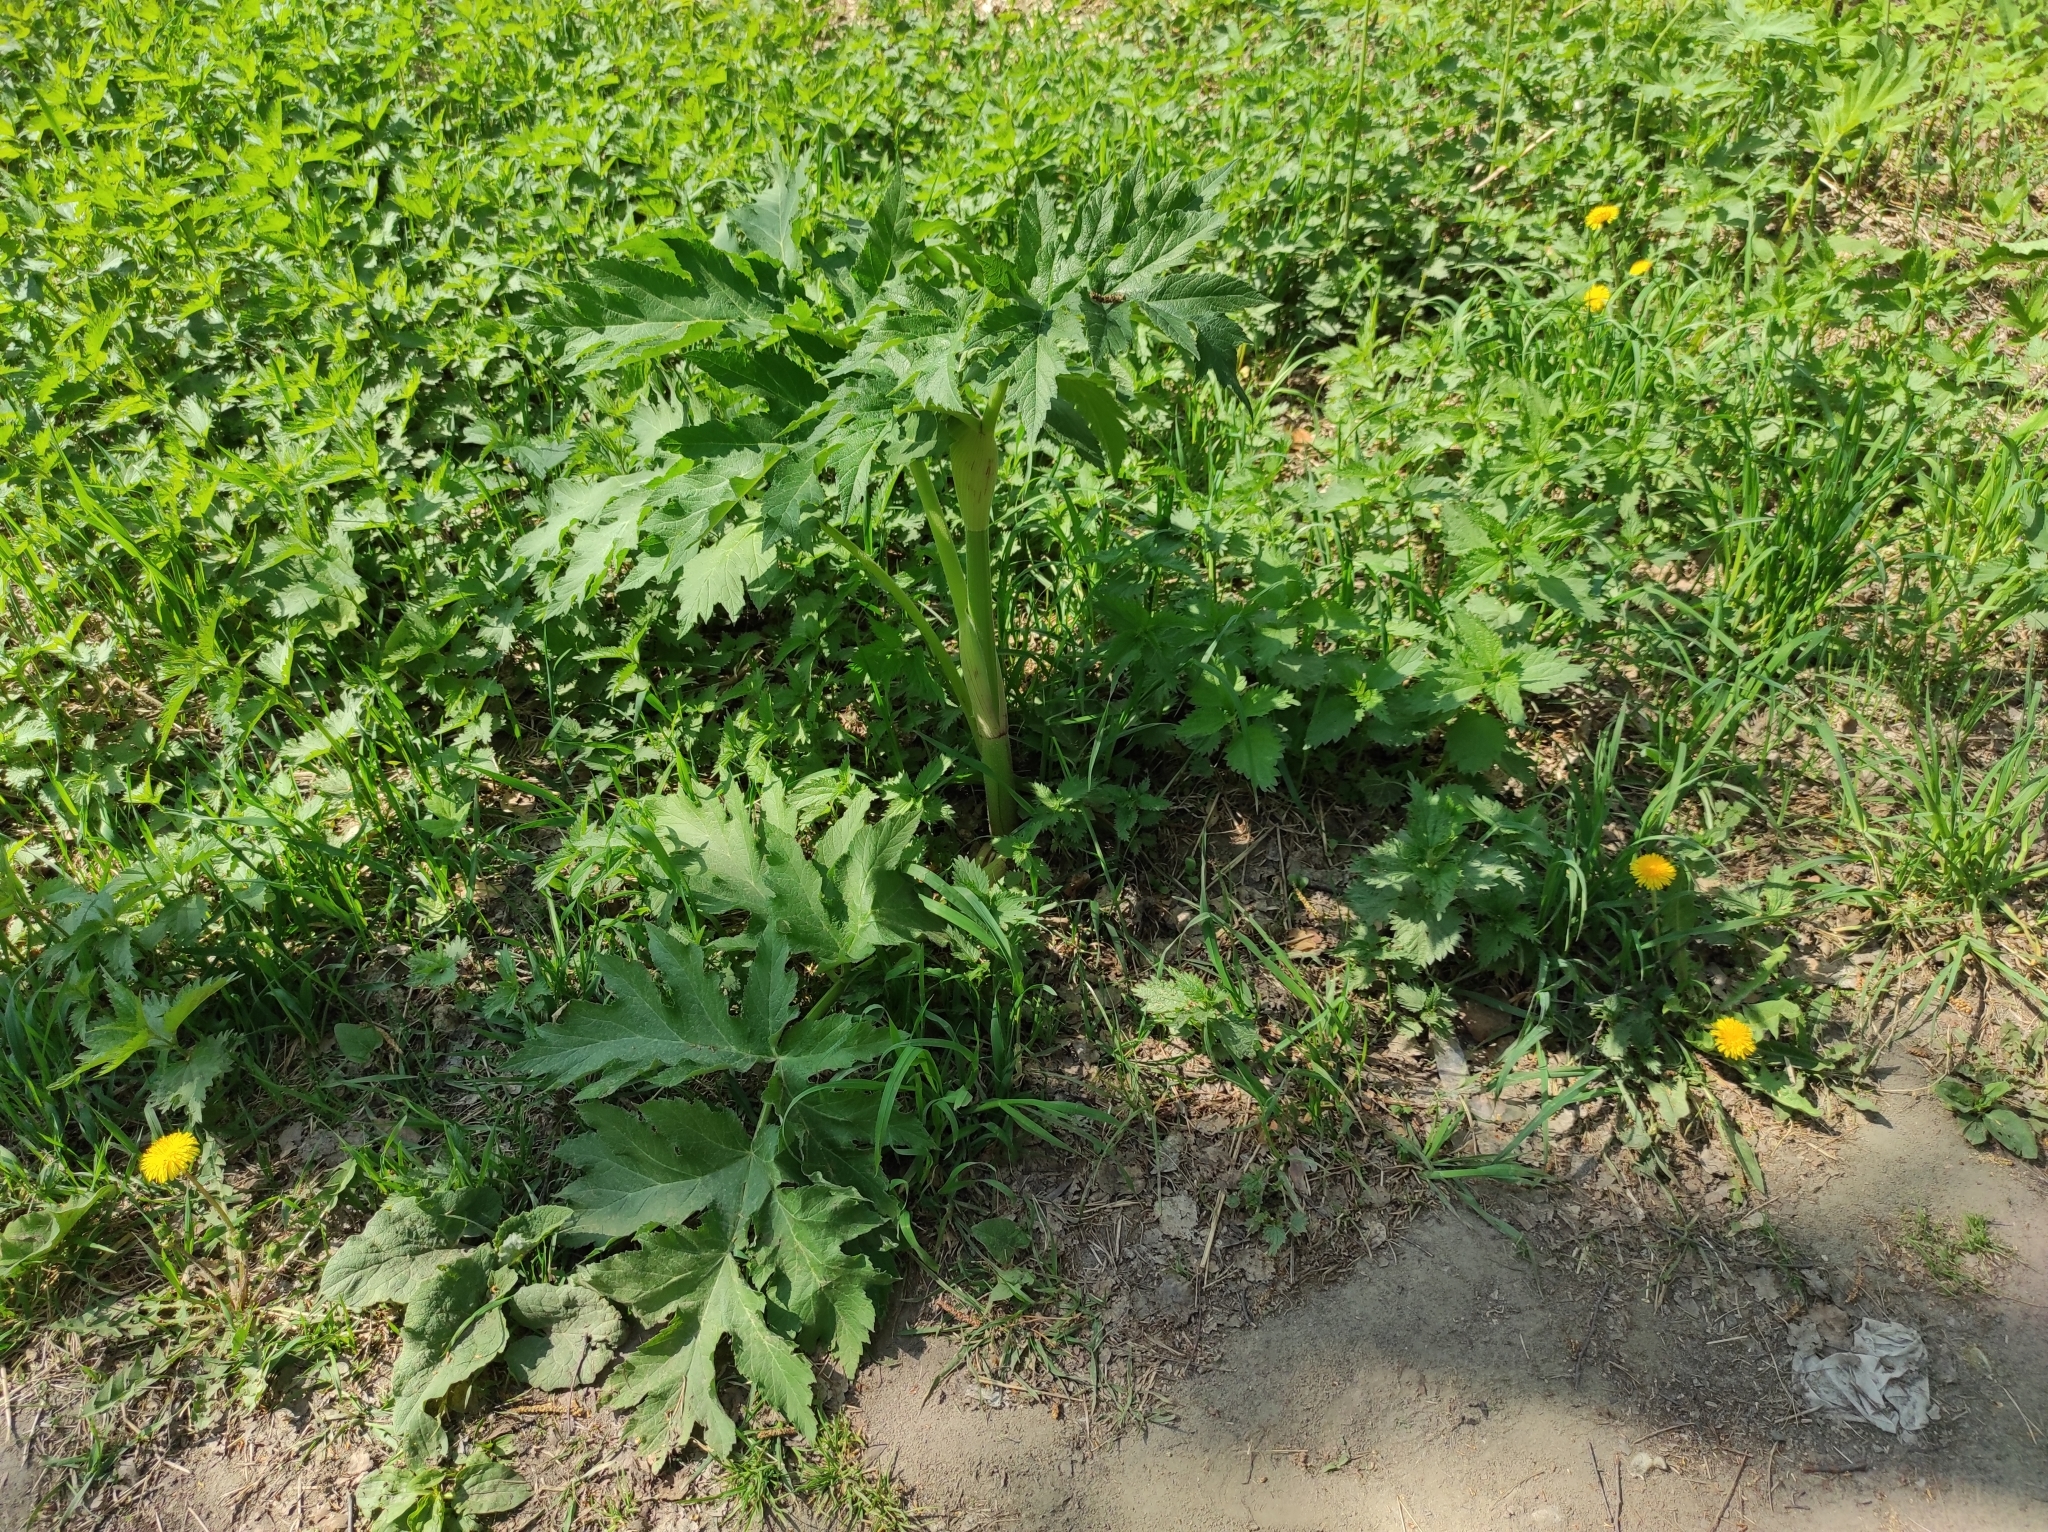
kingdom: Plantae
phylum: Tracheophyta
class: Magnoliopsida
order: Asterales
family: Asteraceae
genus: Taraxacum
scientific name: Taraxacum officinale
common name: Common dandelion
